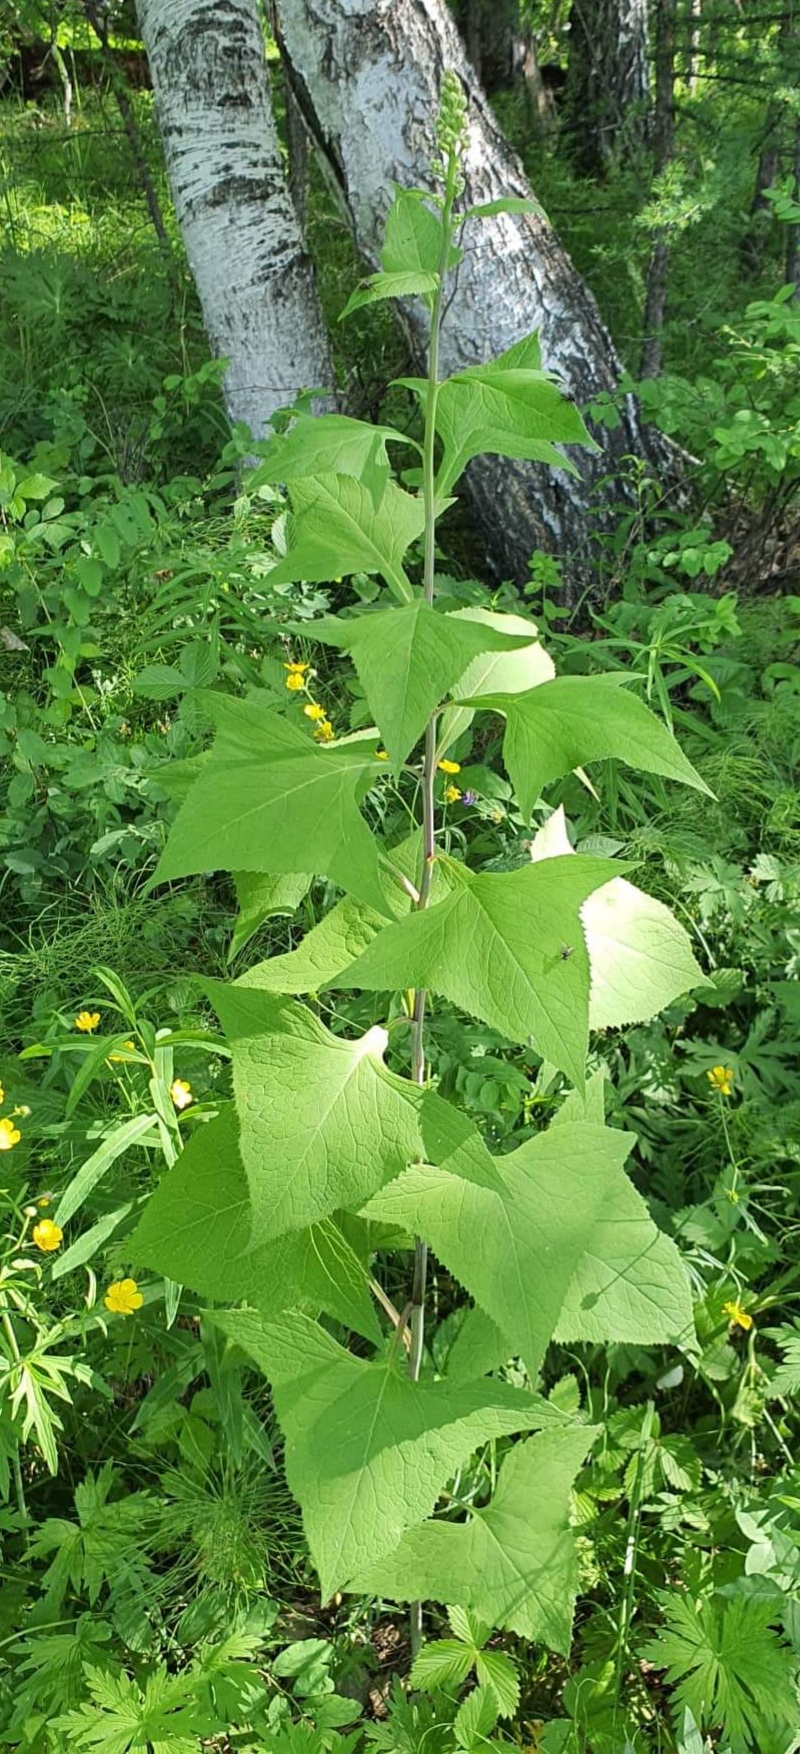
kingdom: Plantae
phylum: Tracheophyta
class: Magnoliopsida
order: Asterales
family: Asteraceae
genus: Parasenecio
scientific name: Parasenecio hastatus
